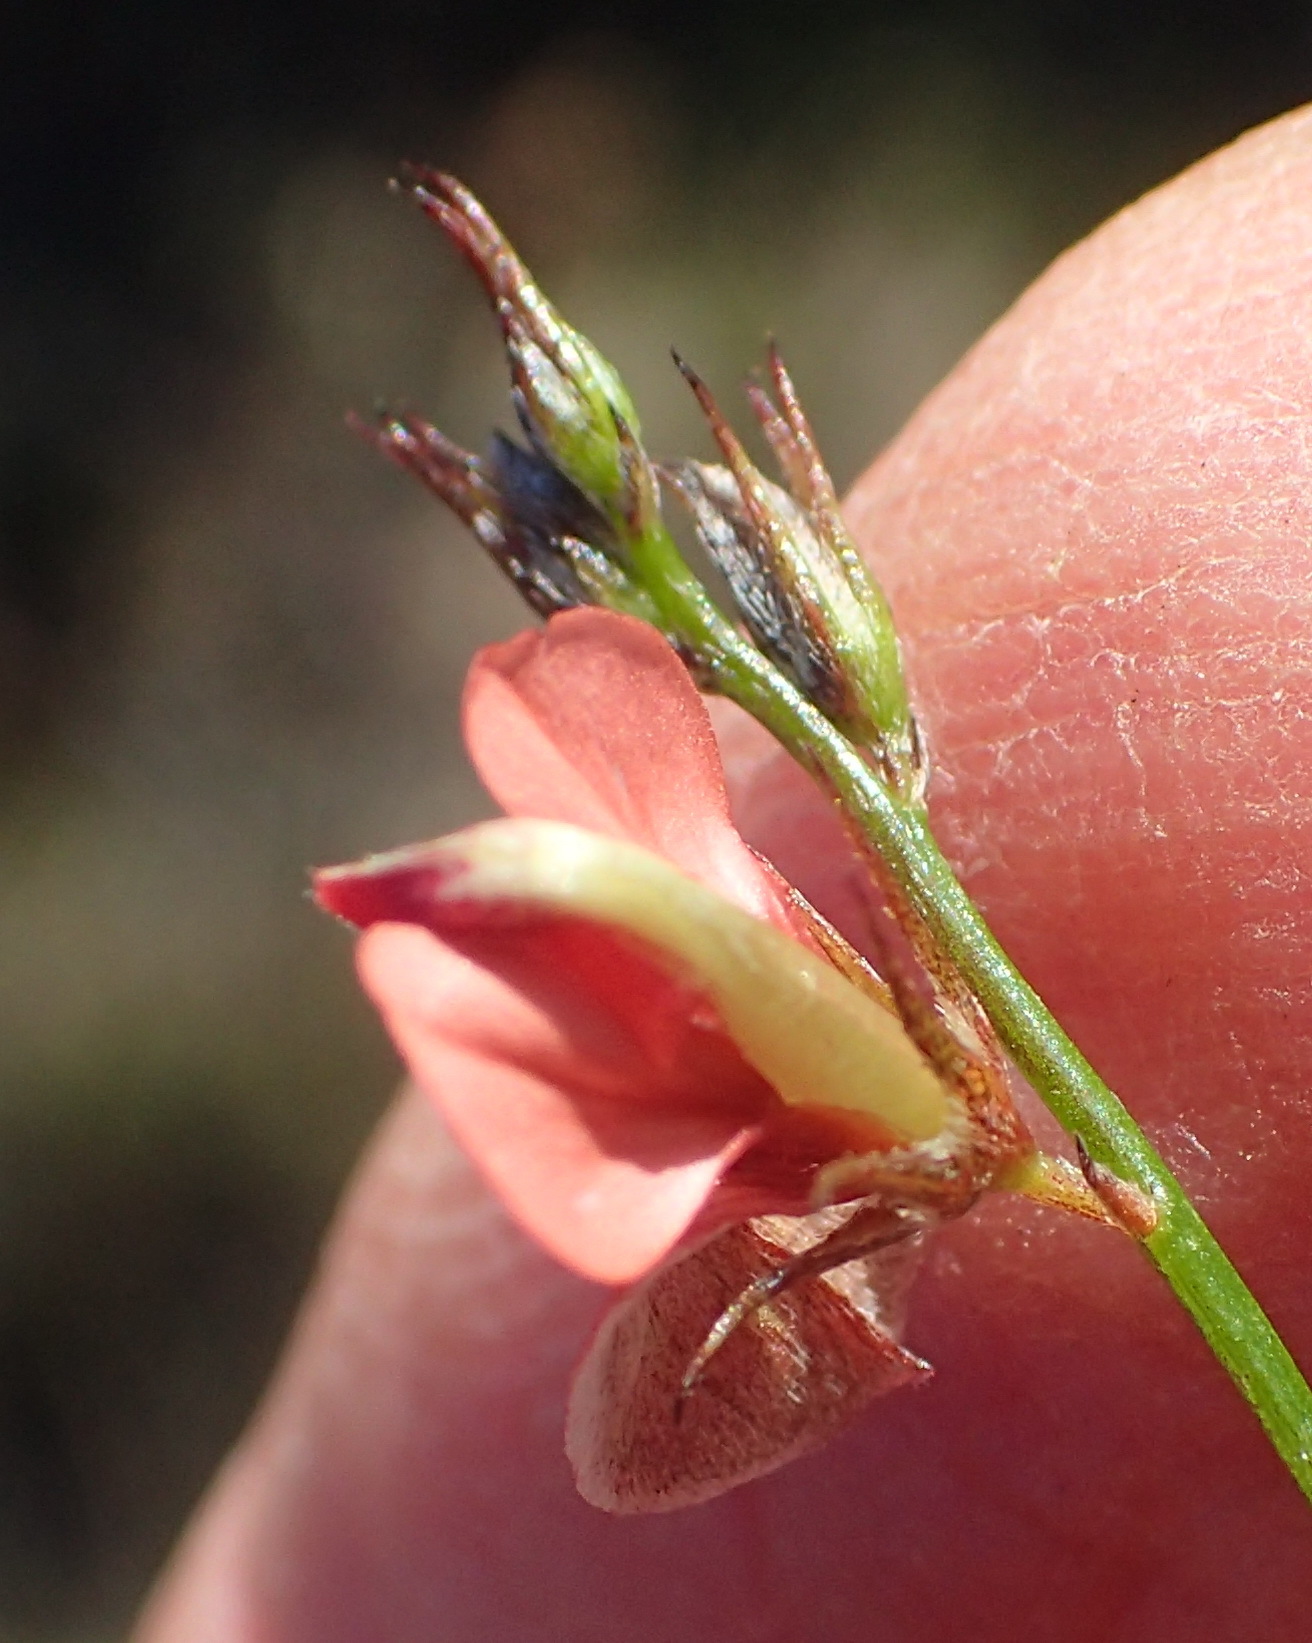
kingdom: Plantae
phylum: Tracheophyta
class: Magnoliopsida
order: Fabales
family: Fabaceae
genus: Indigofera
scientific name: Indigofera disticha
